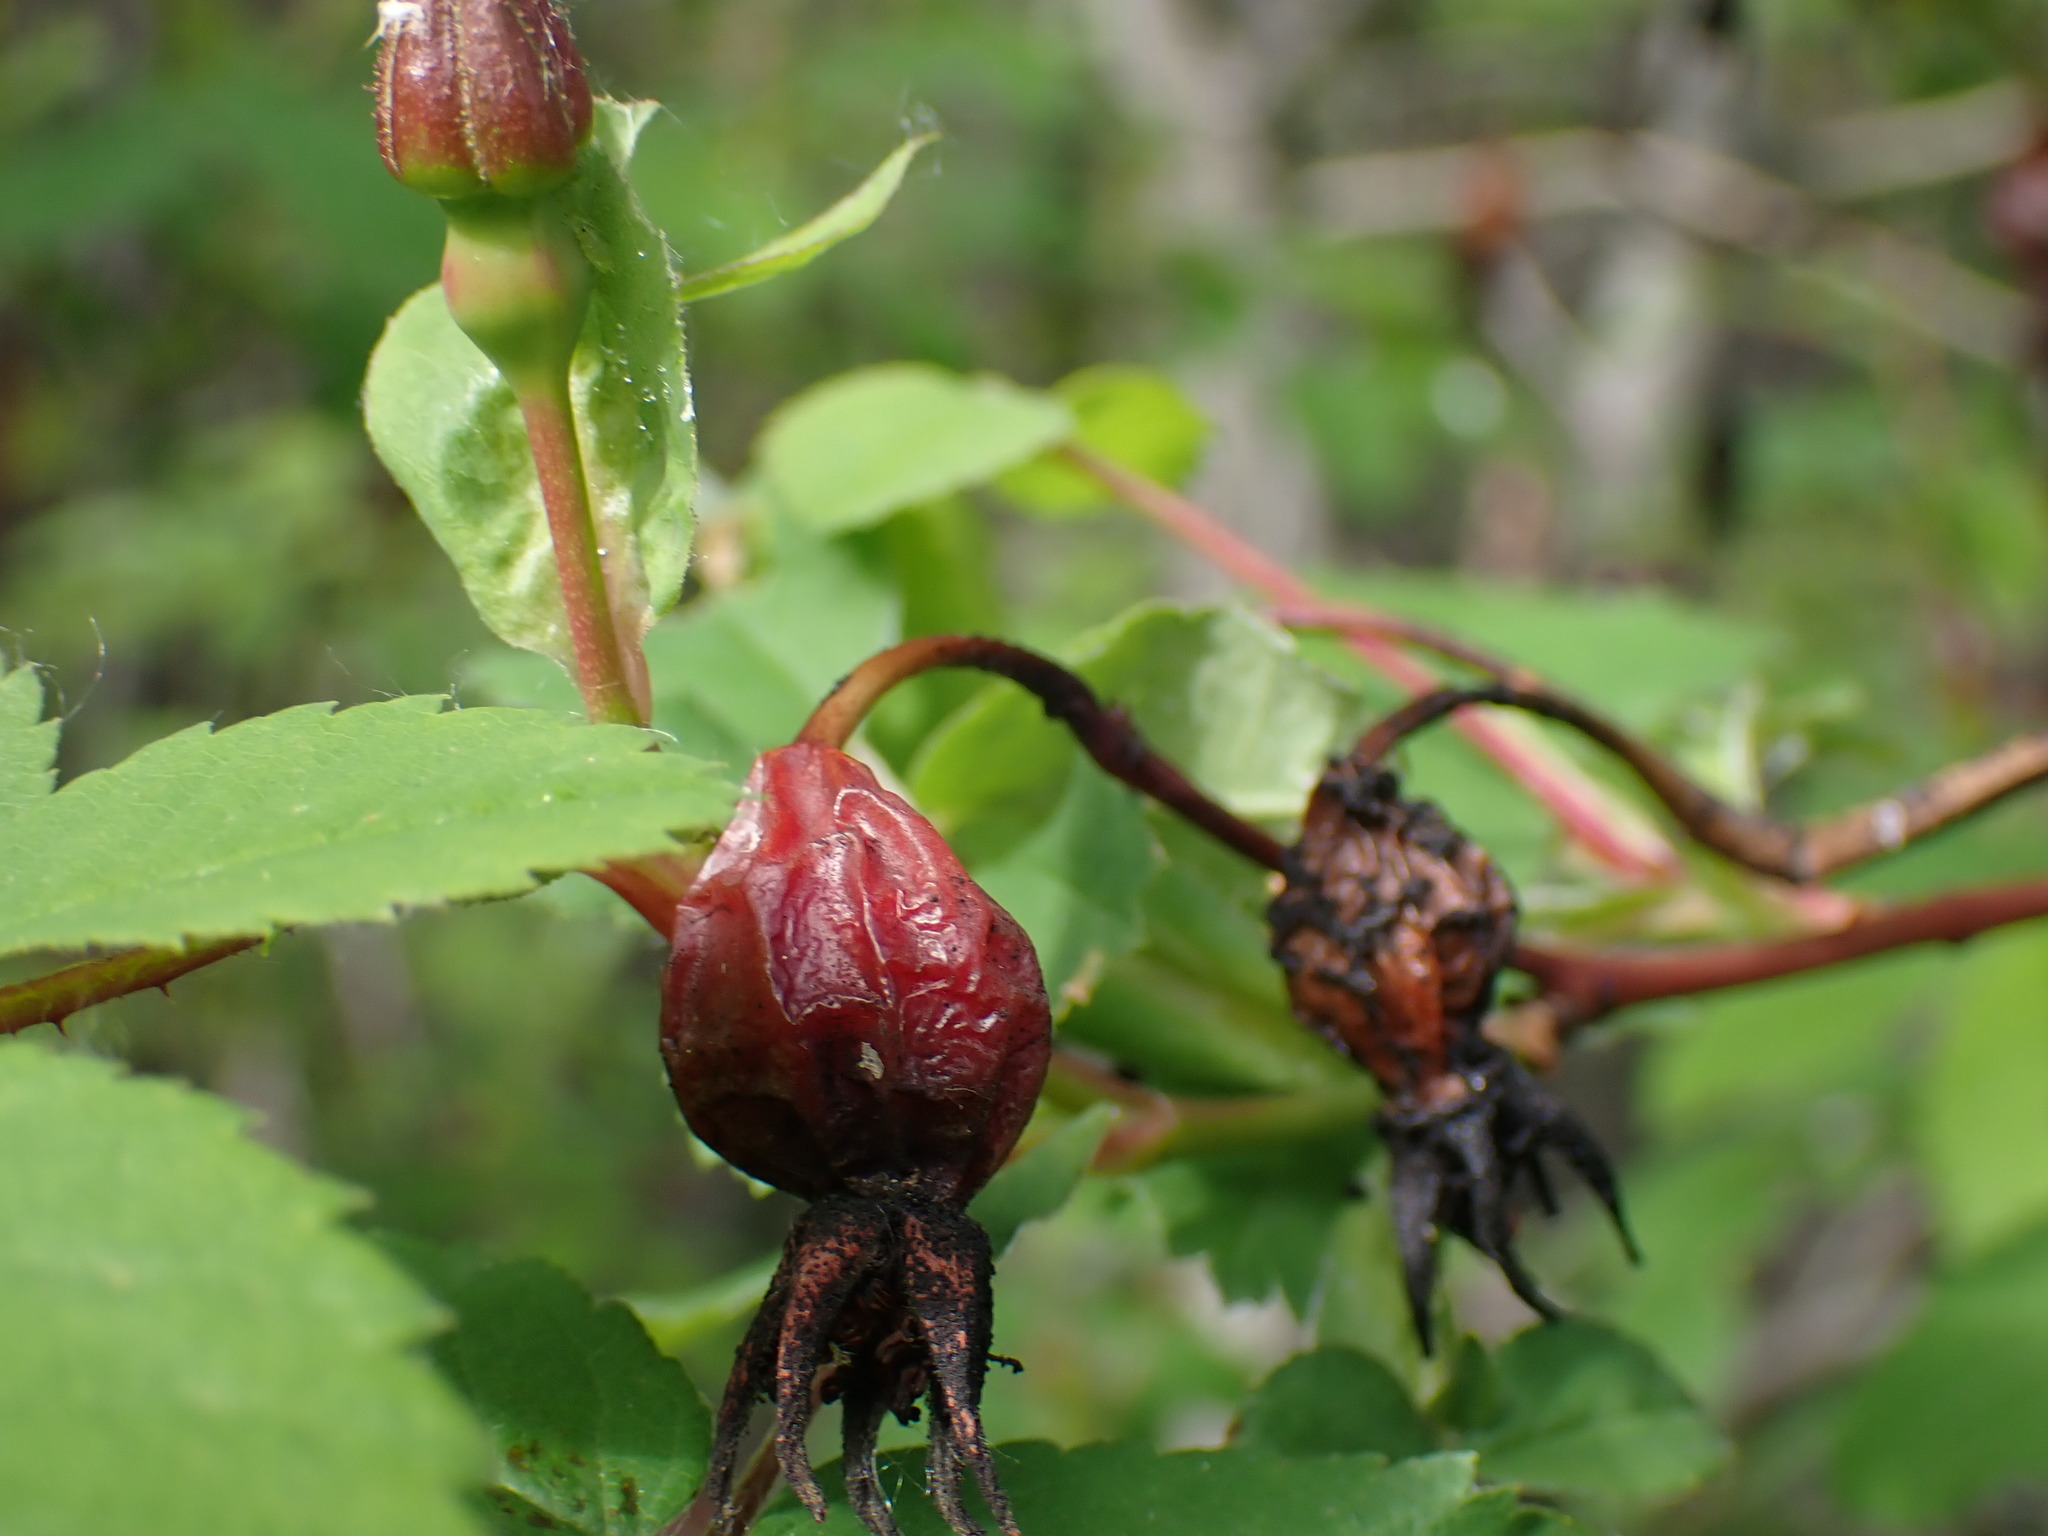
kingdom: Plantae
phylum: Tracheophyta
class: Magnoliopsida
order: Rosales
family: Rosaceae
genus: Rosa
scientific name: Rosa woodsii
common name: Woods's rose
